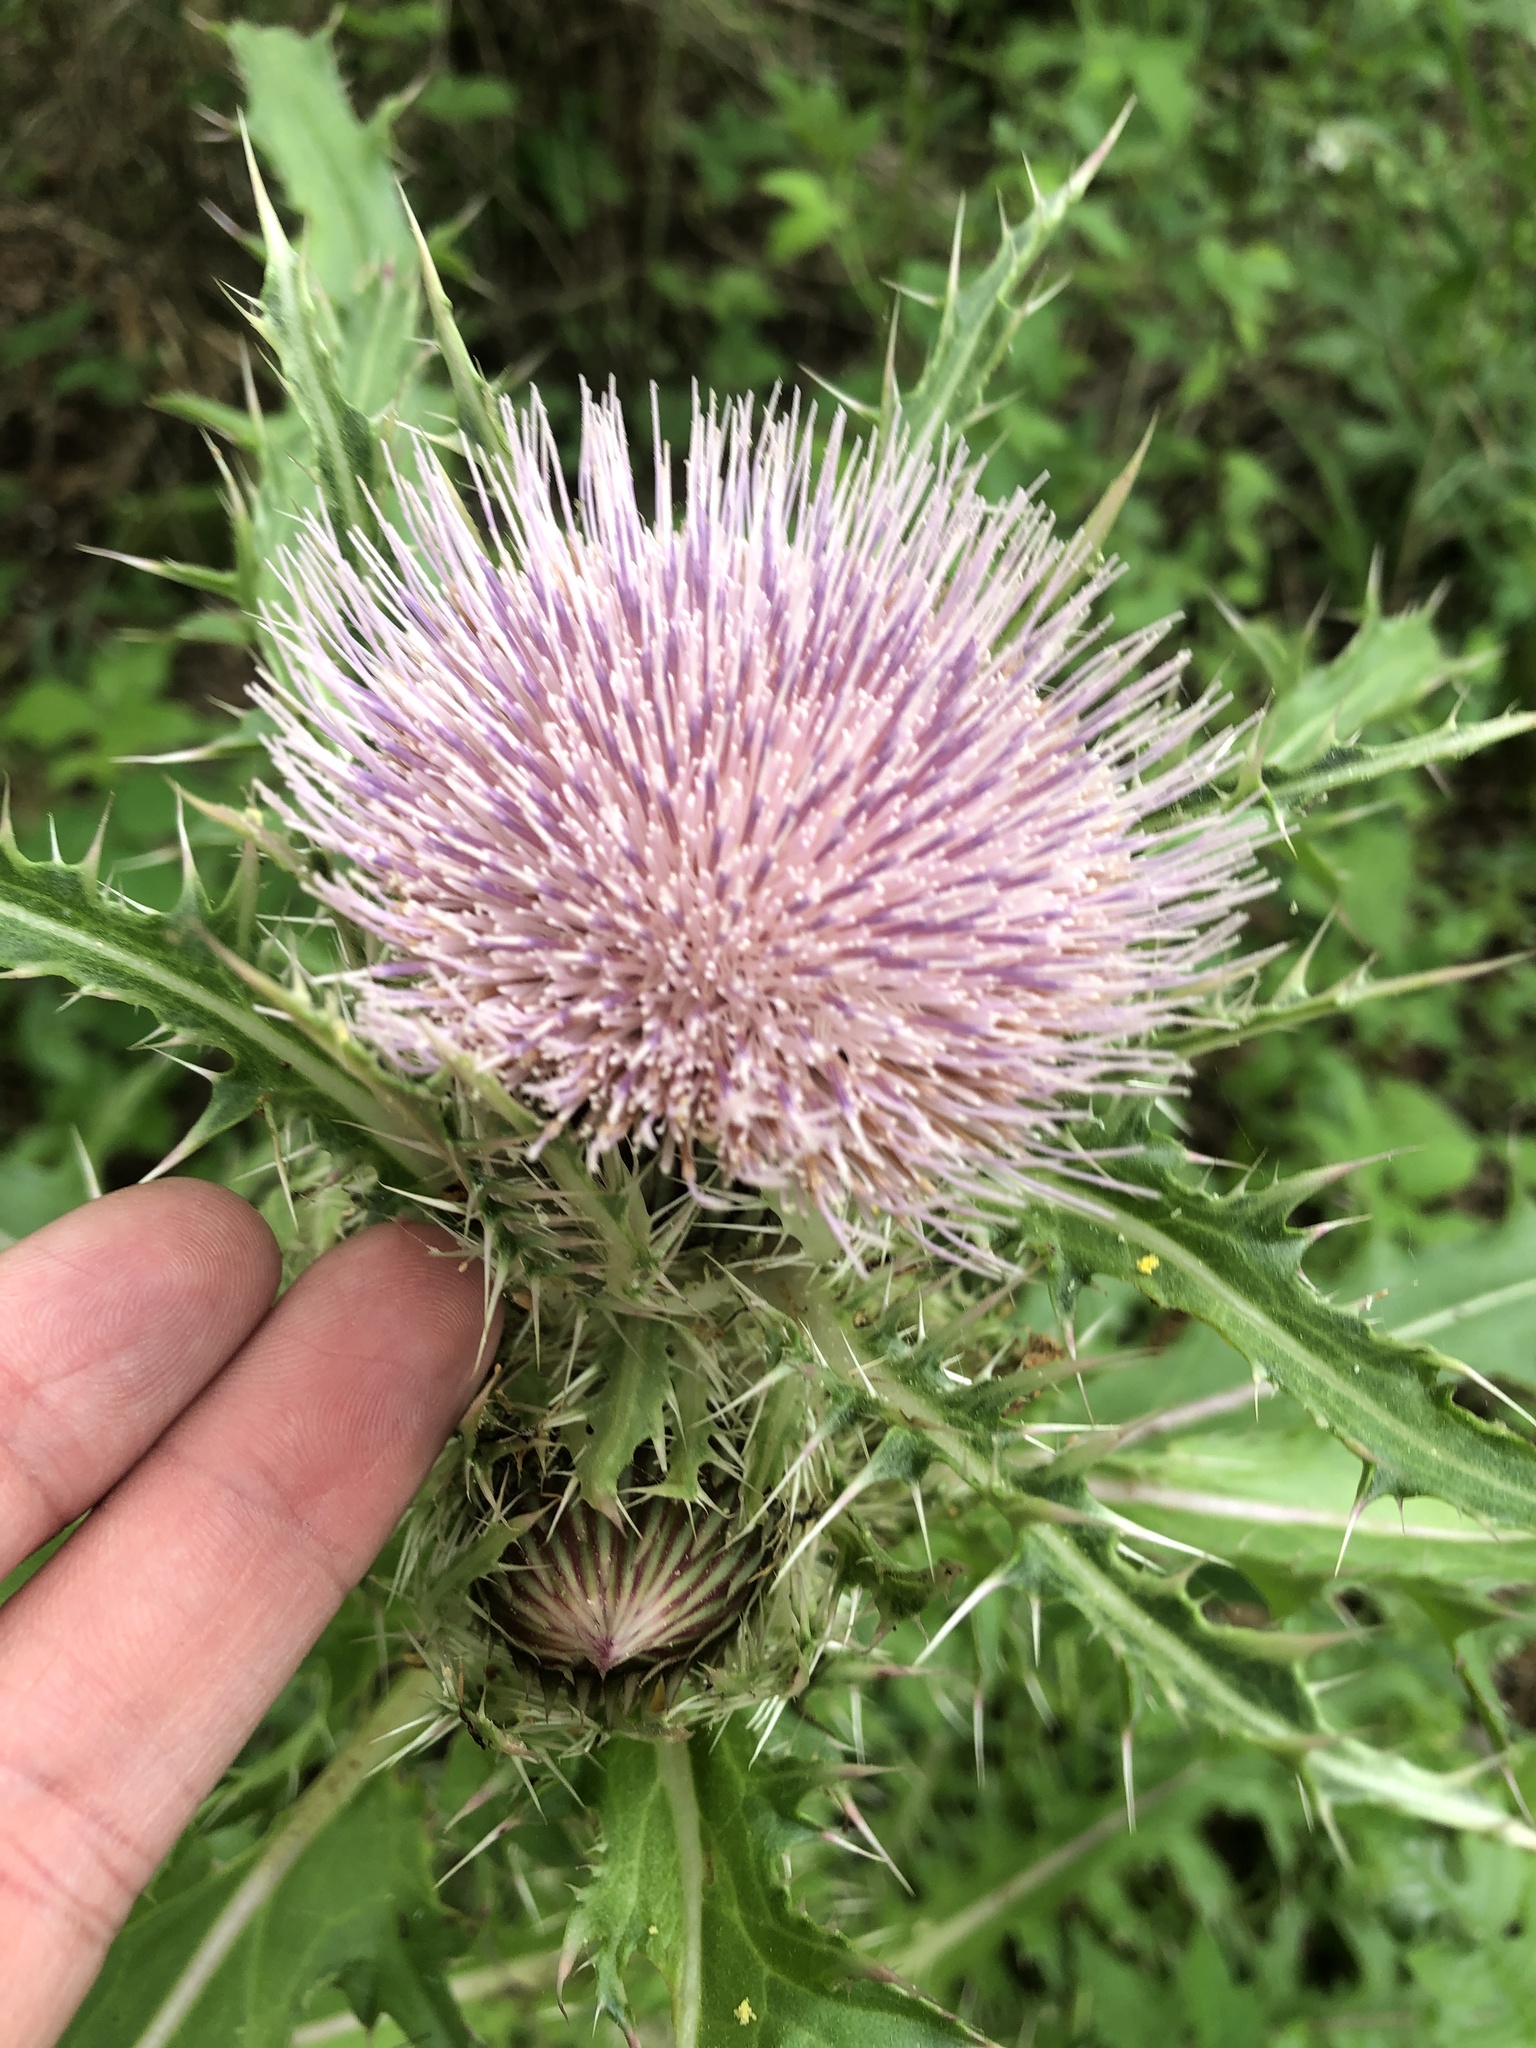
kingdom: Plantae
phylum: Tracheophyta
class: Magnoliopsida
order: Asterales
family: Asteraceae
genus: Cirsium
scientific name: Cirsium horridulum
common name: Bristly thistle
